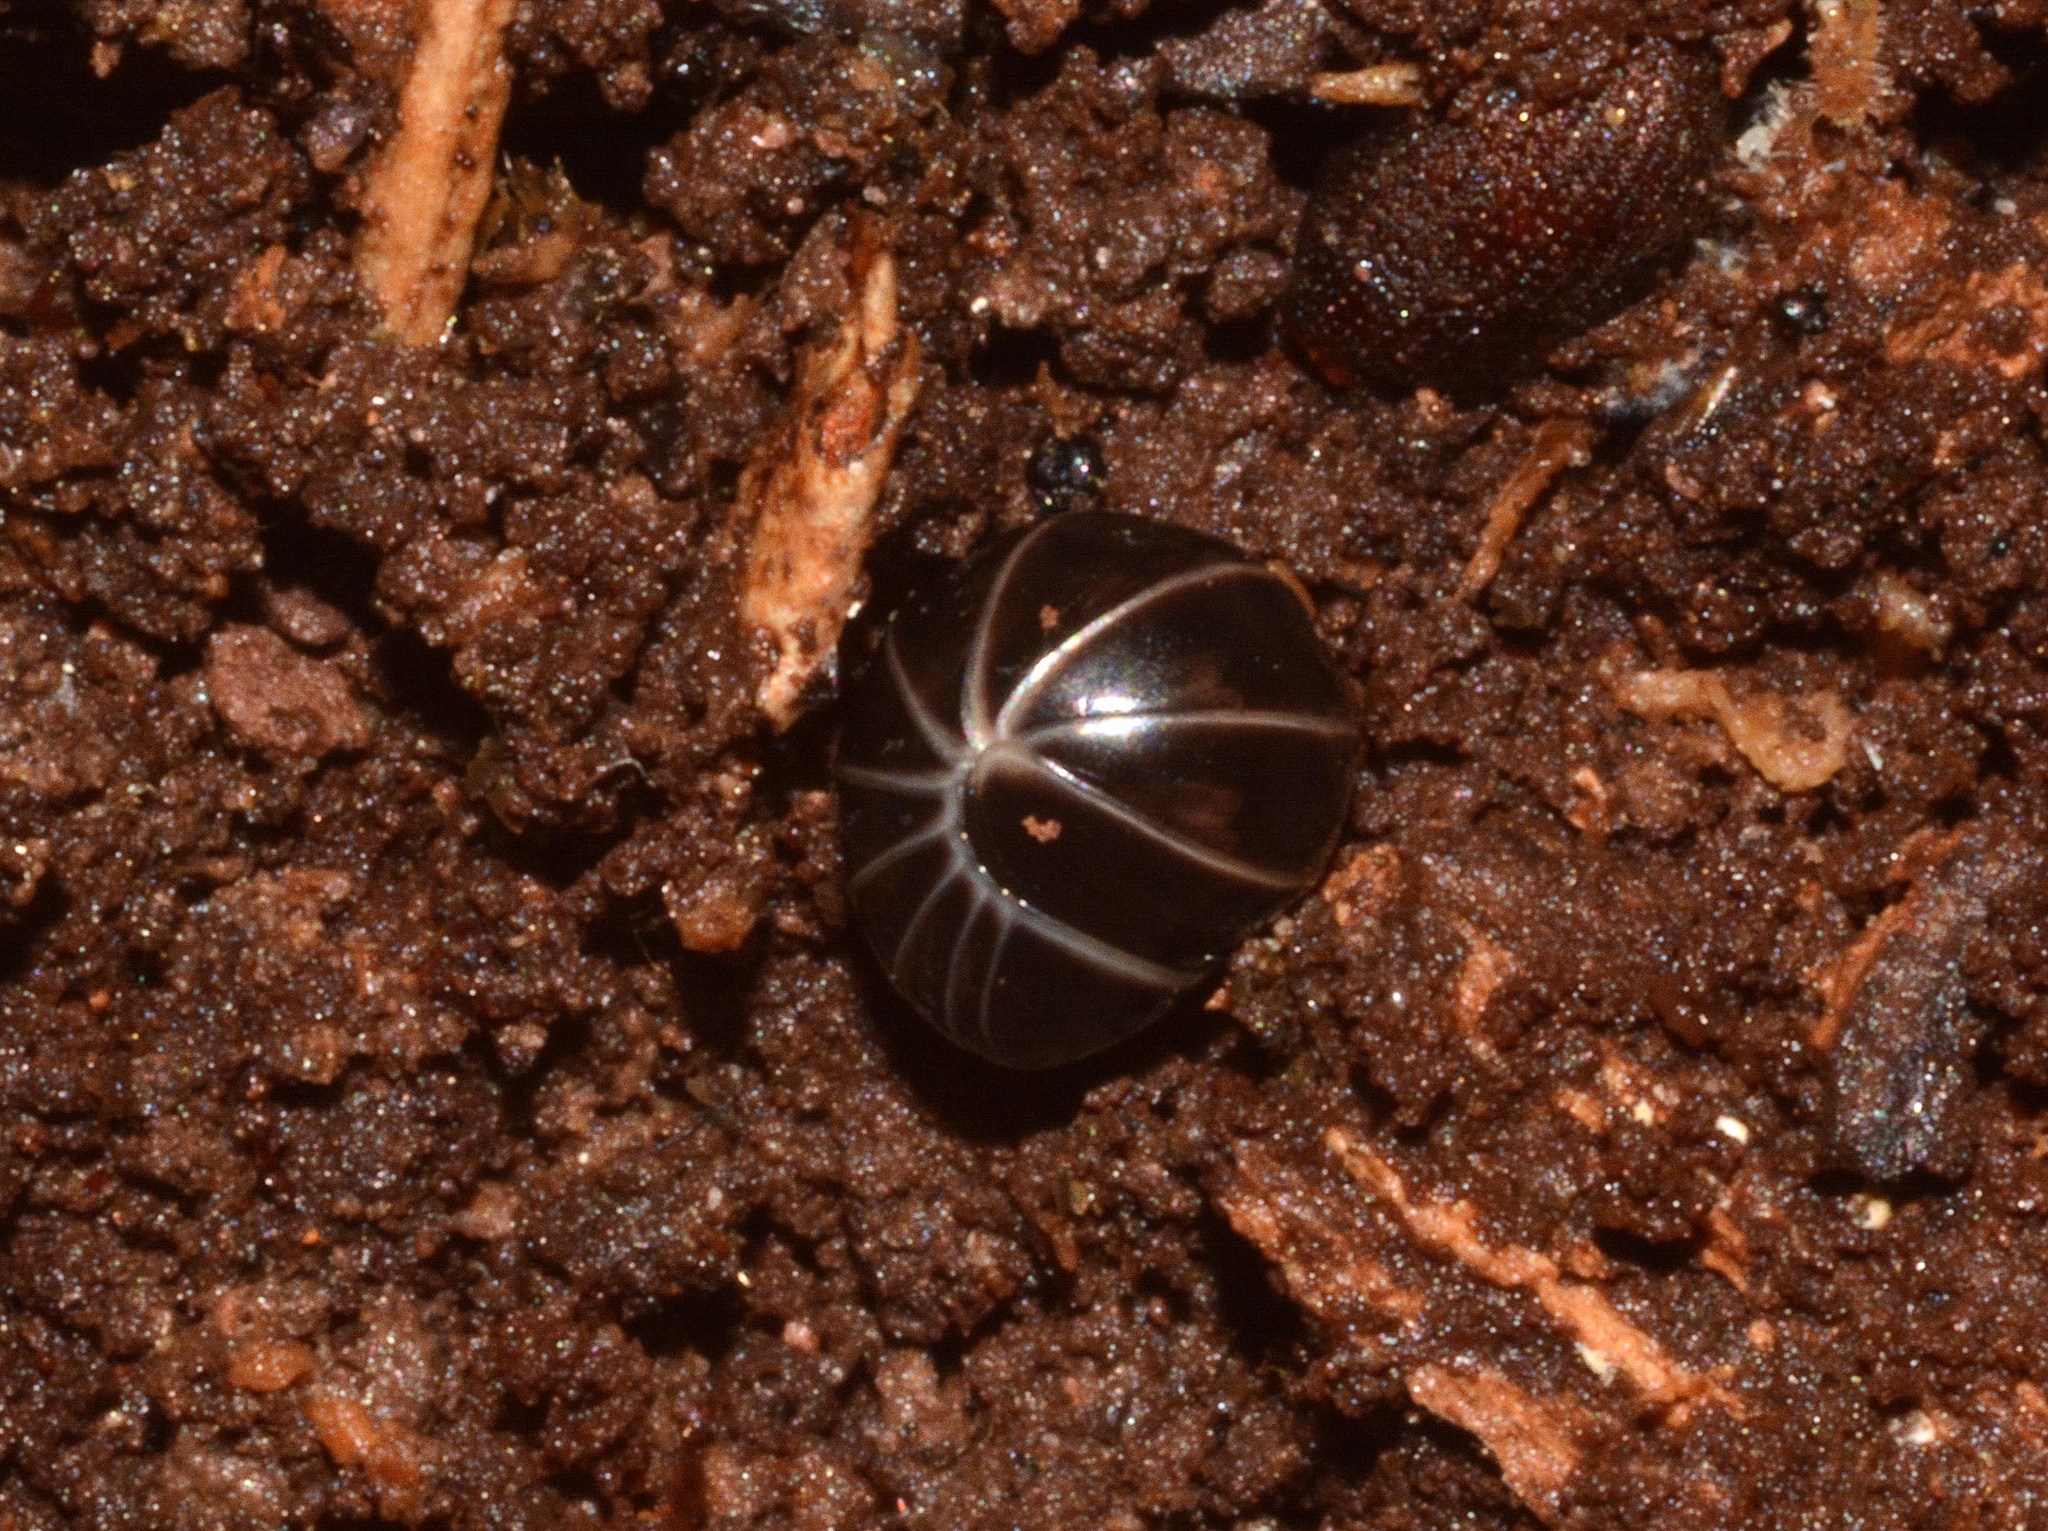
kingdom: Animalia
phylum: Arthropoda
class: Diplopoda
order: Glomerida
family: Glomeridae
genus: Glomeris
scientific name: Glomeris marginata
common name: Bordered pill millipede
